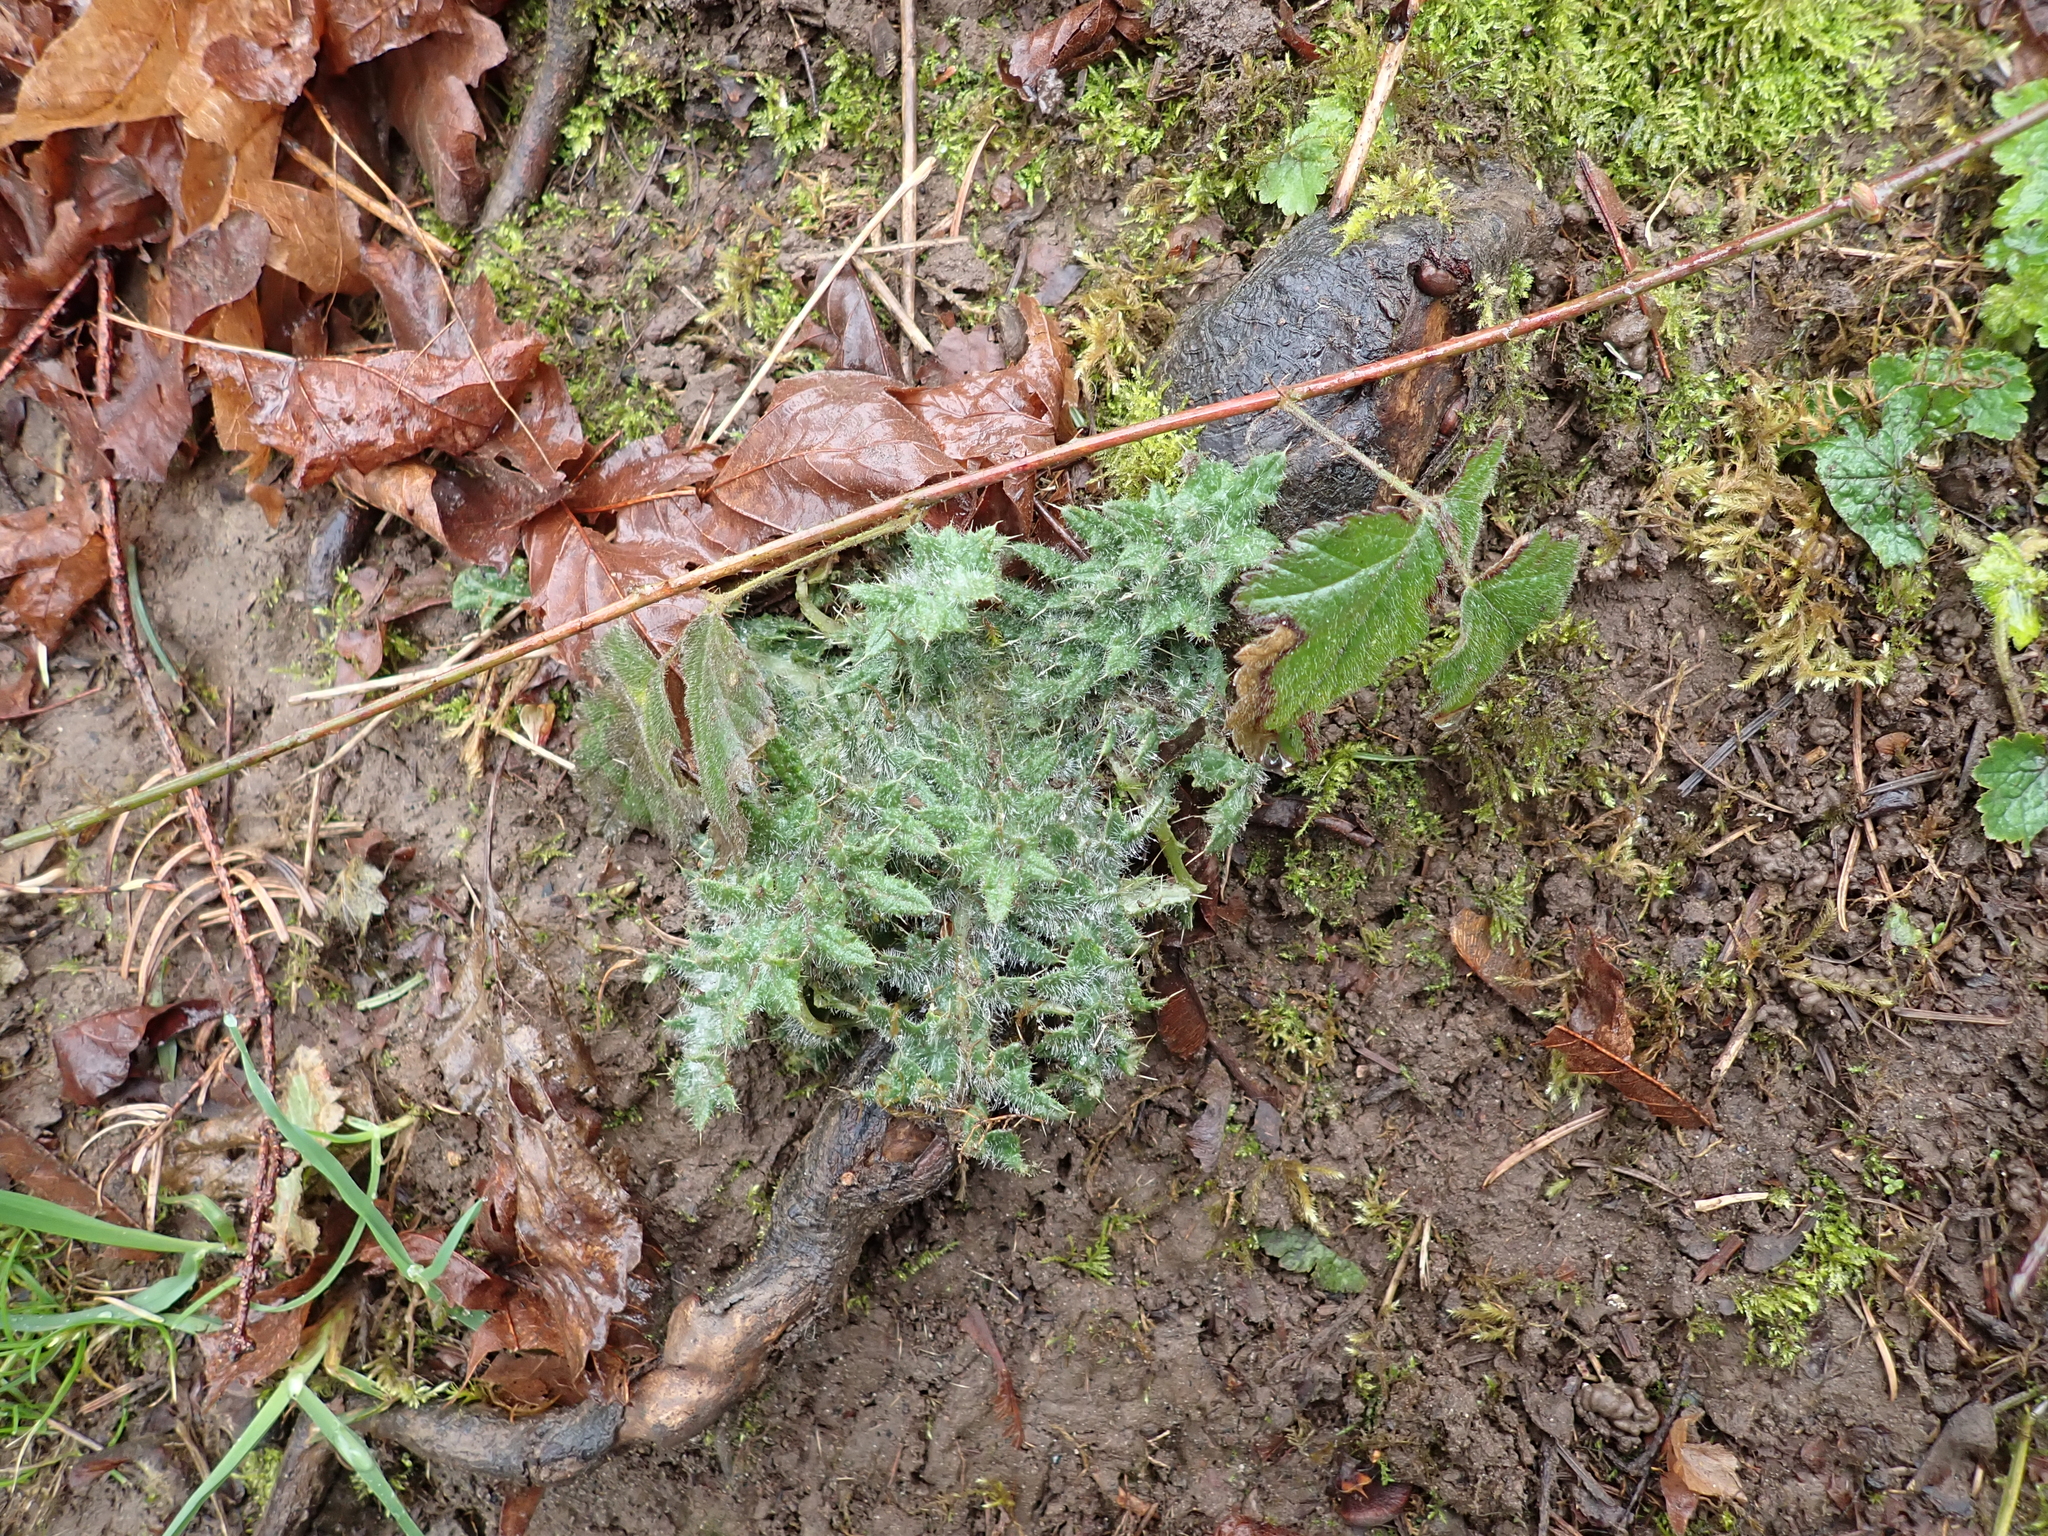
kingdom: Plantae
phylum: Tracheophyta
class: Magnoliopsida
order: Asterales
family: Asteraceae
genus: Cirsium
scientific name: Cirsium vulgare
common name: Bull thistle
